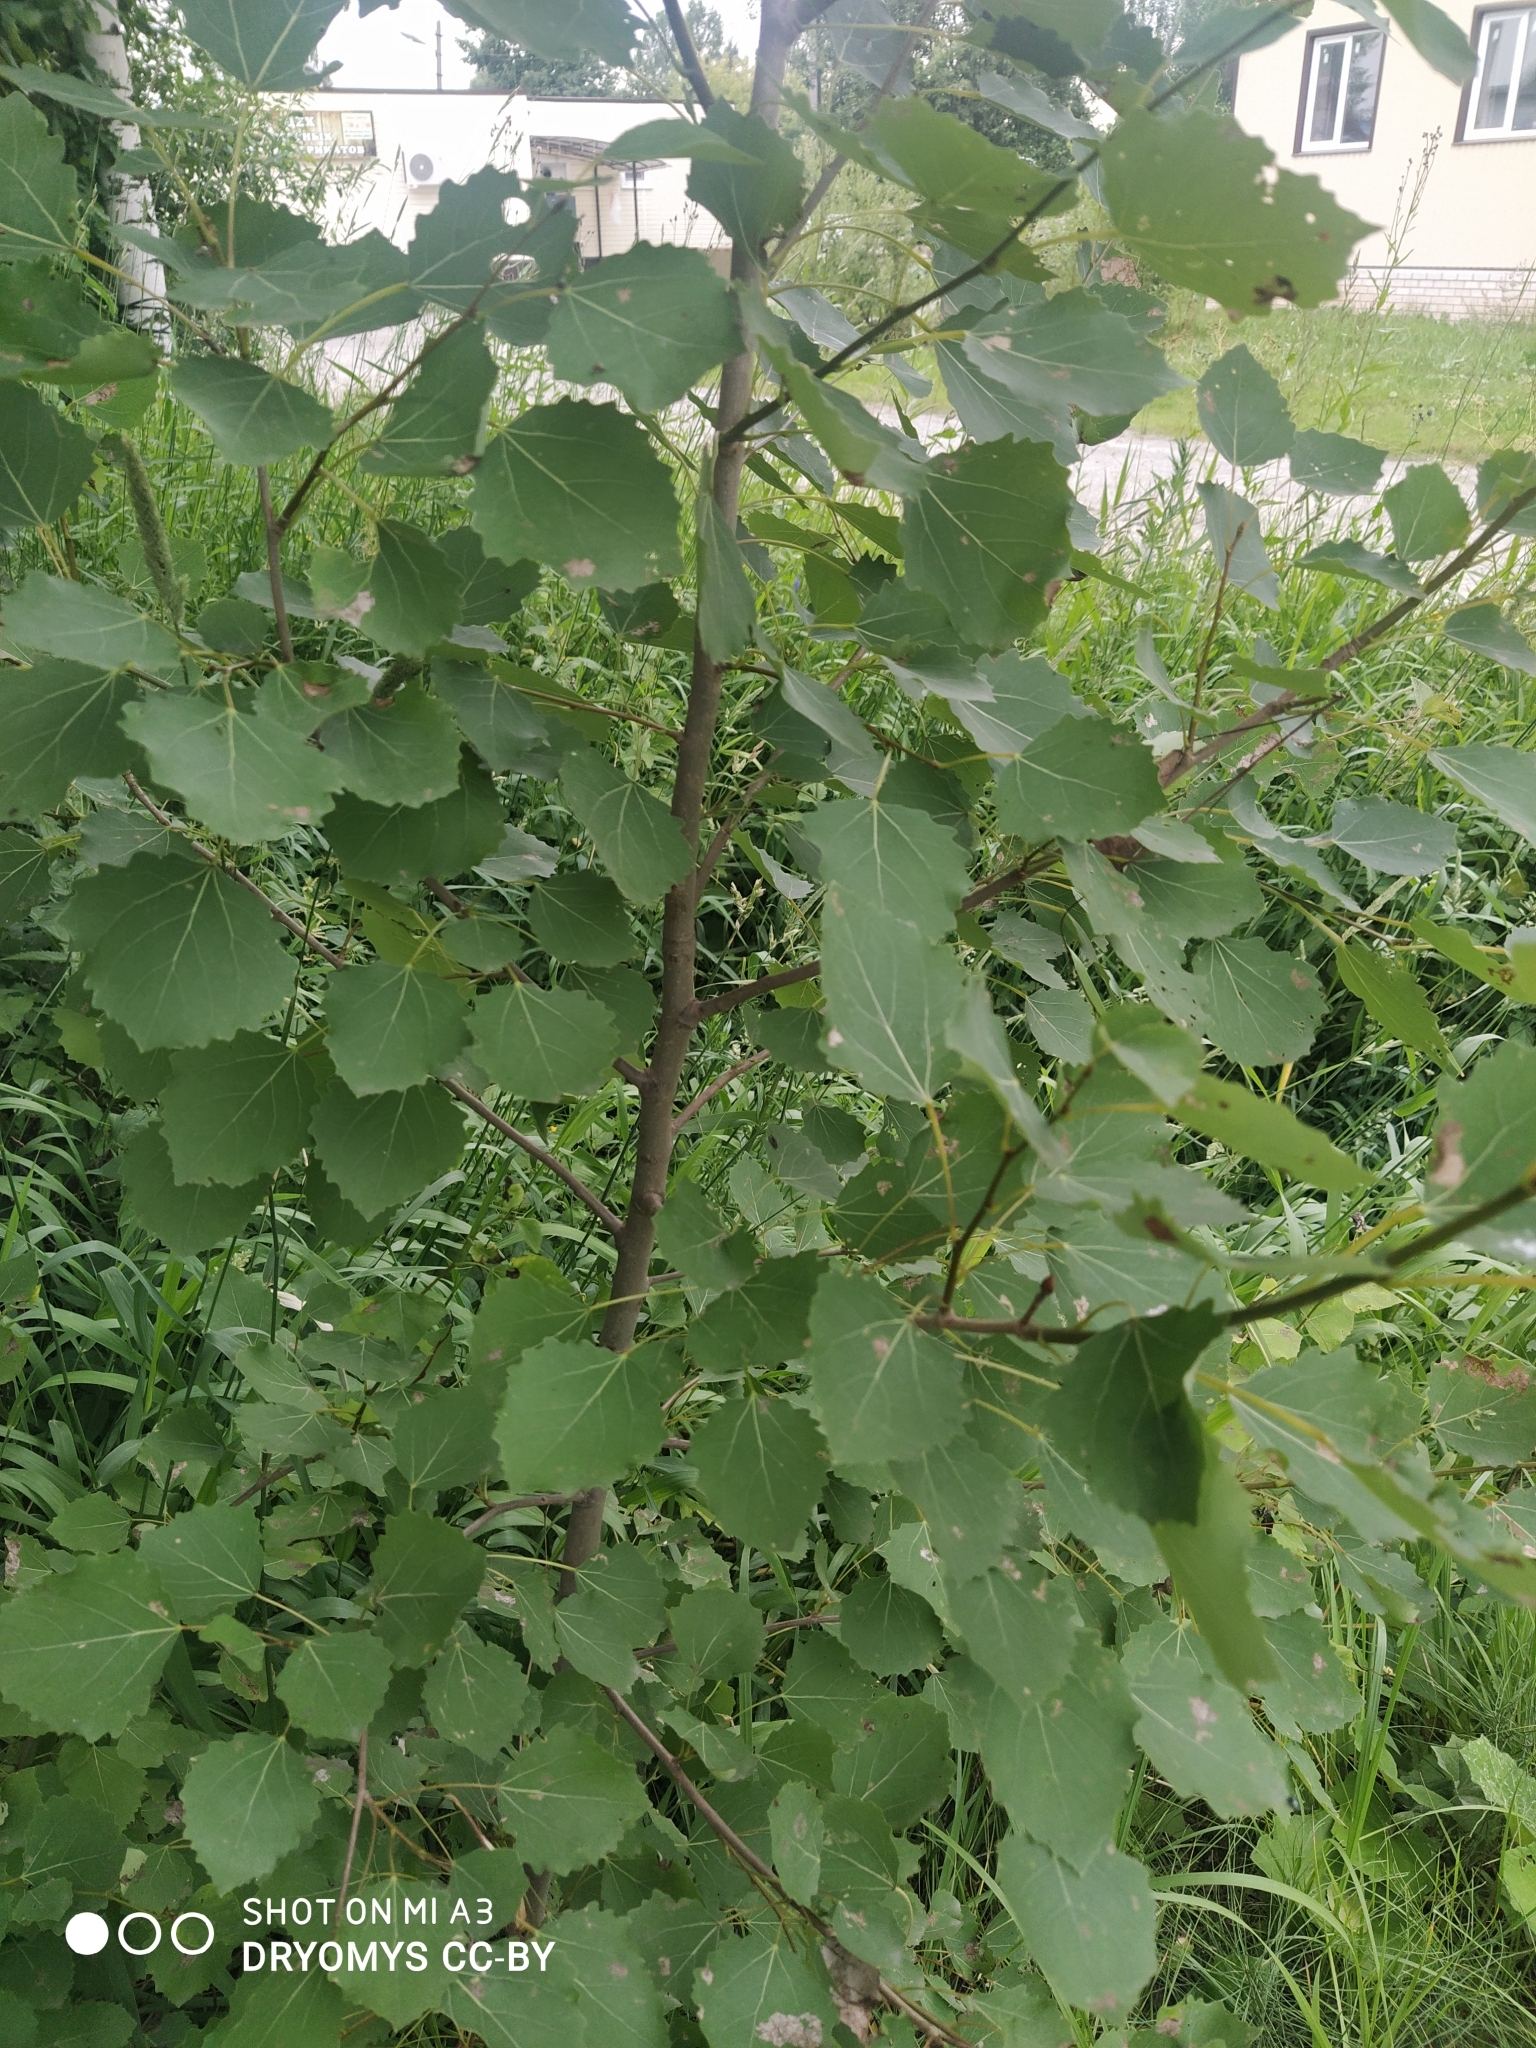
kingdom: Plantae
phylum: Tracheophyta
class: Magnoliopsida
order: Malpighiales
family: Salicaceae
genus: Populus
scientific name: Populus tremula
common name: European aspen
